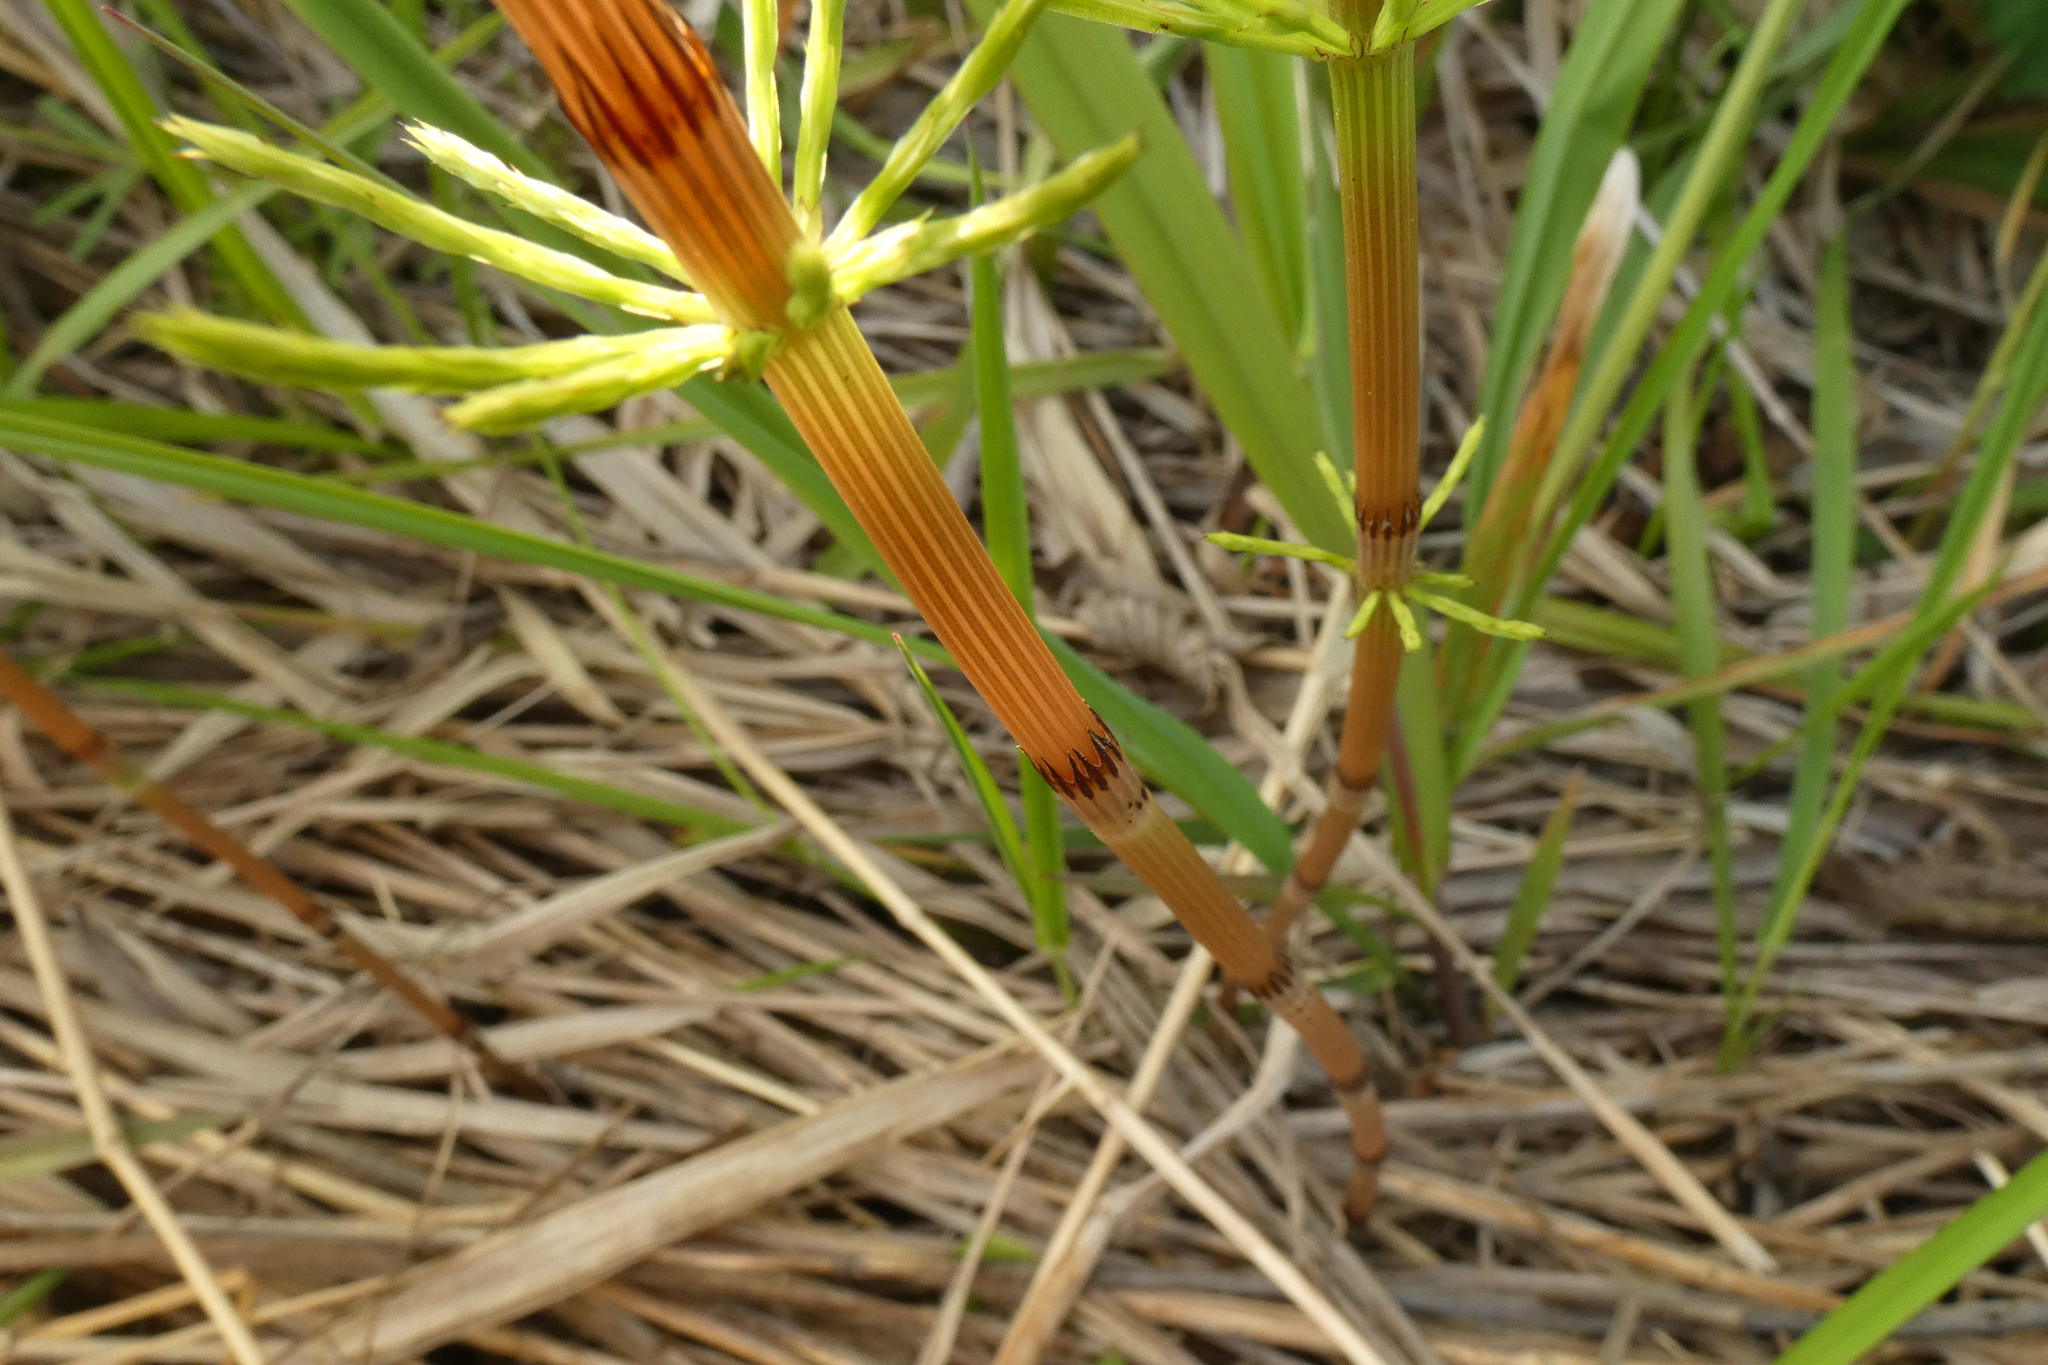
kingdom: Plantae
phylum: Tracheophyta
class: Polypodiopsida
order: Equisetales
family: Equisetaceae
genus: Equisetum
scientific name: Equisetum arvense
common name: Field horsetail
